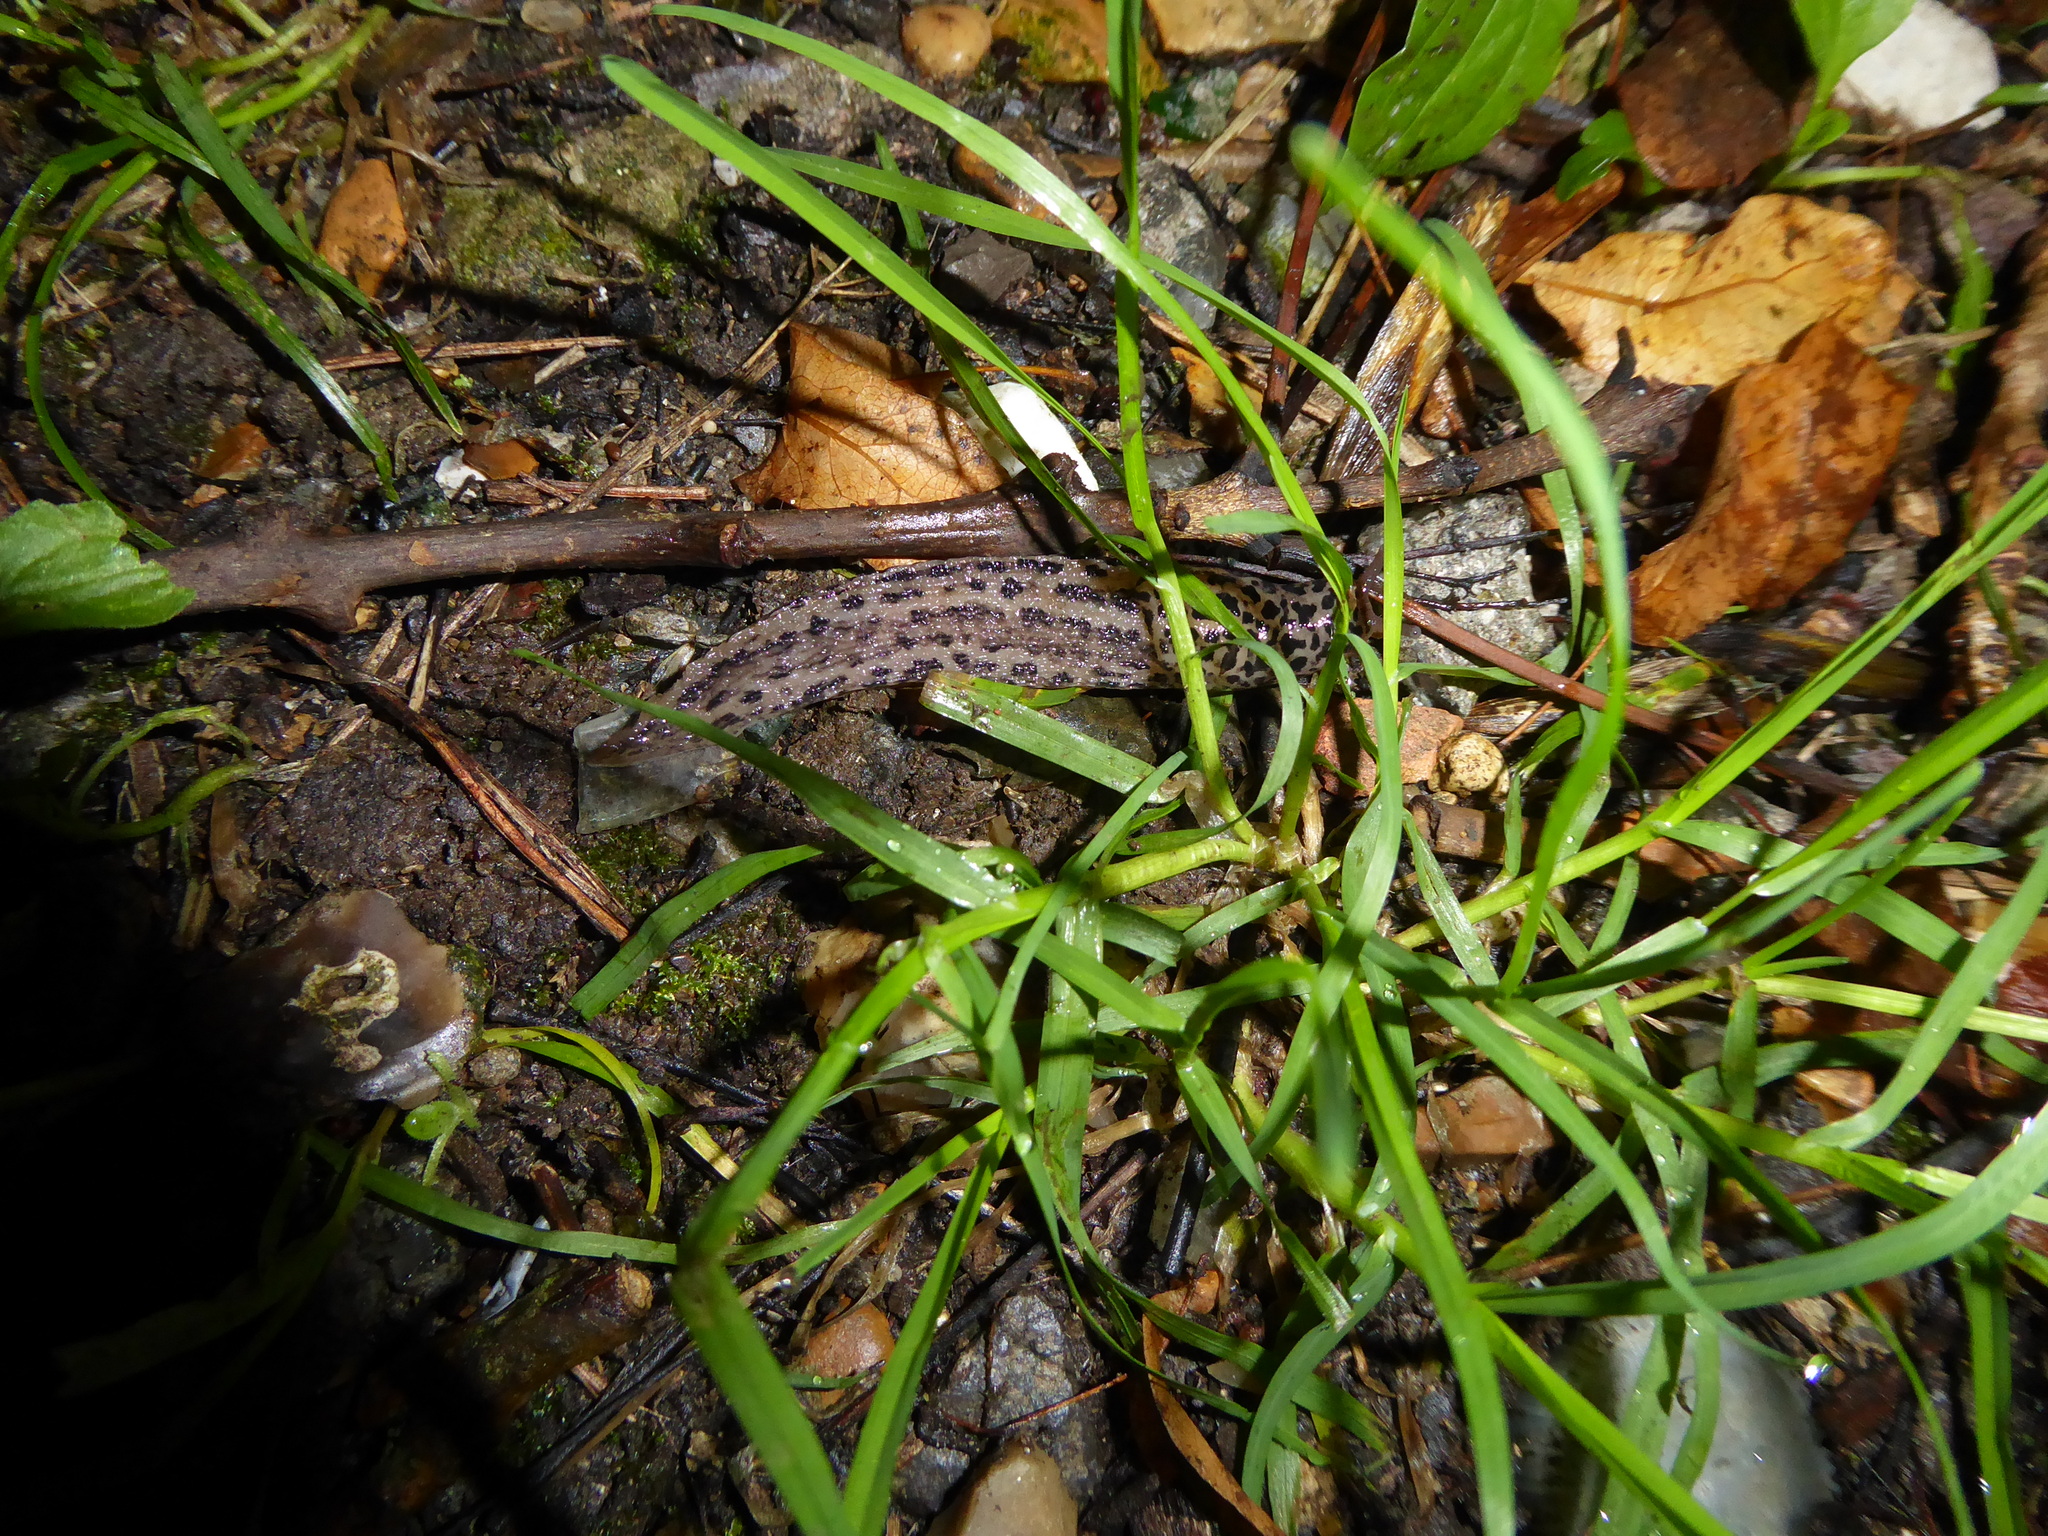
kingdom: Animalia
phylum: Mollusca
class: Gastropoda
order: Stylommatophora
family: Limacidae
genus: Limax
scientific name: Limax maximus
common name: Great grey slug
